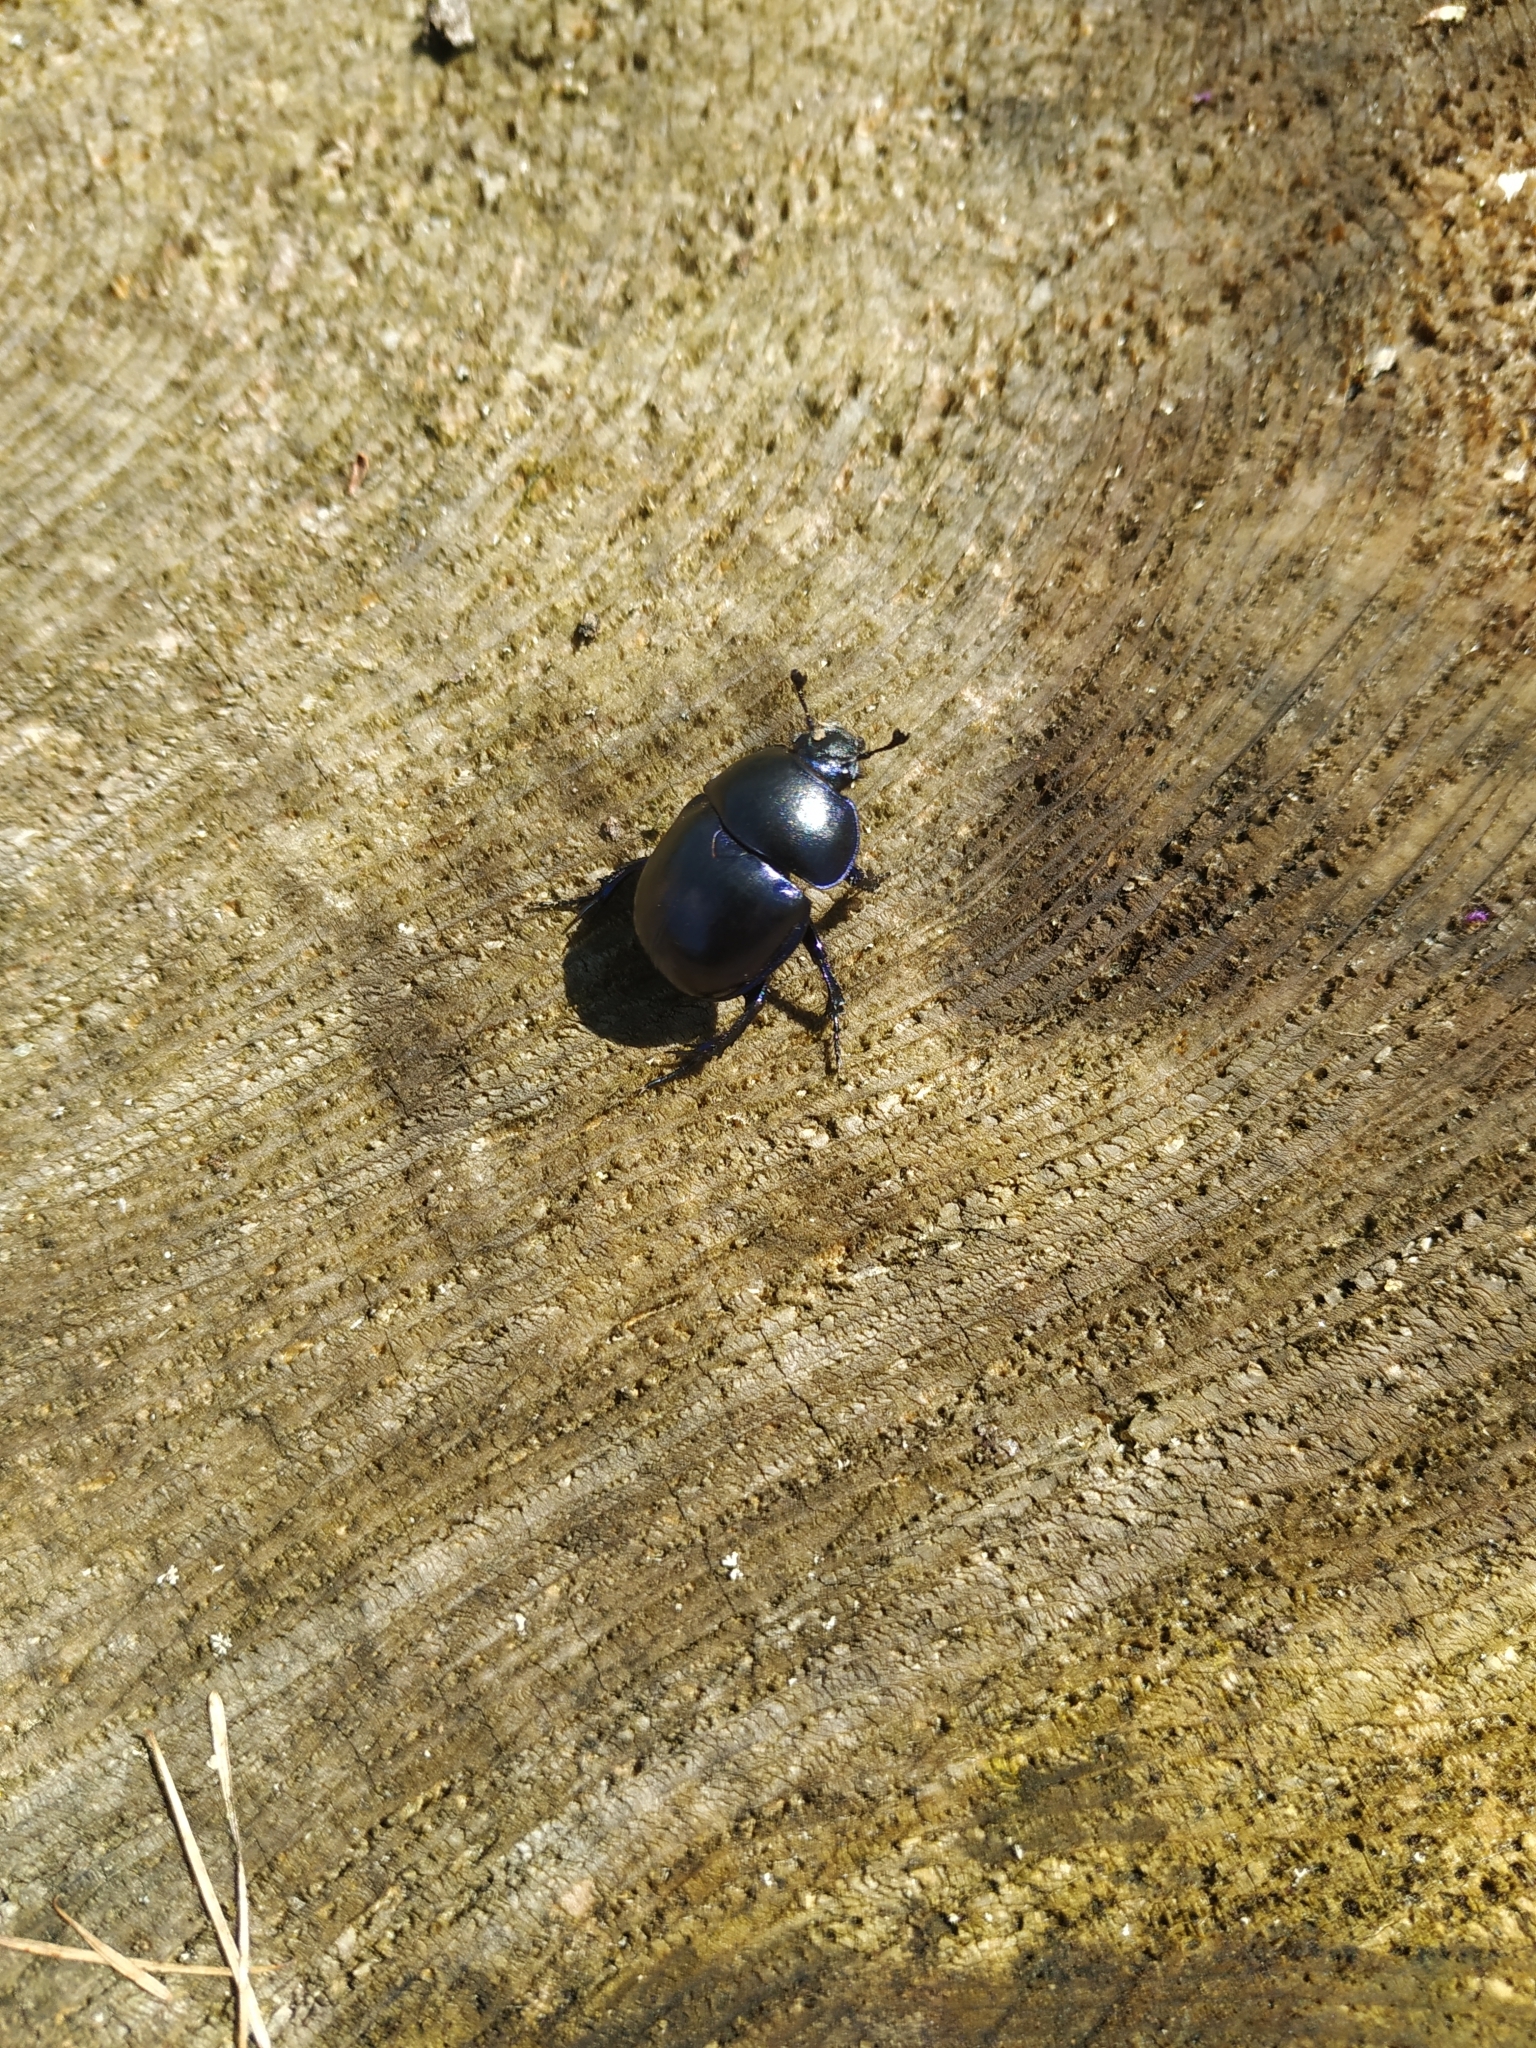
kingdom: Animalia
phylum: Arthropoda
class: Insecta
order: Coleoptera
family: Geotrupidae
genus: Trypocopris
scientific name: Trypocopris vernalis
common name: Spring dumbledor
